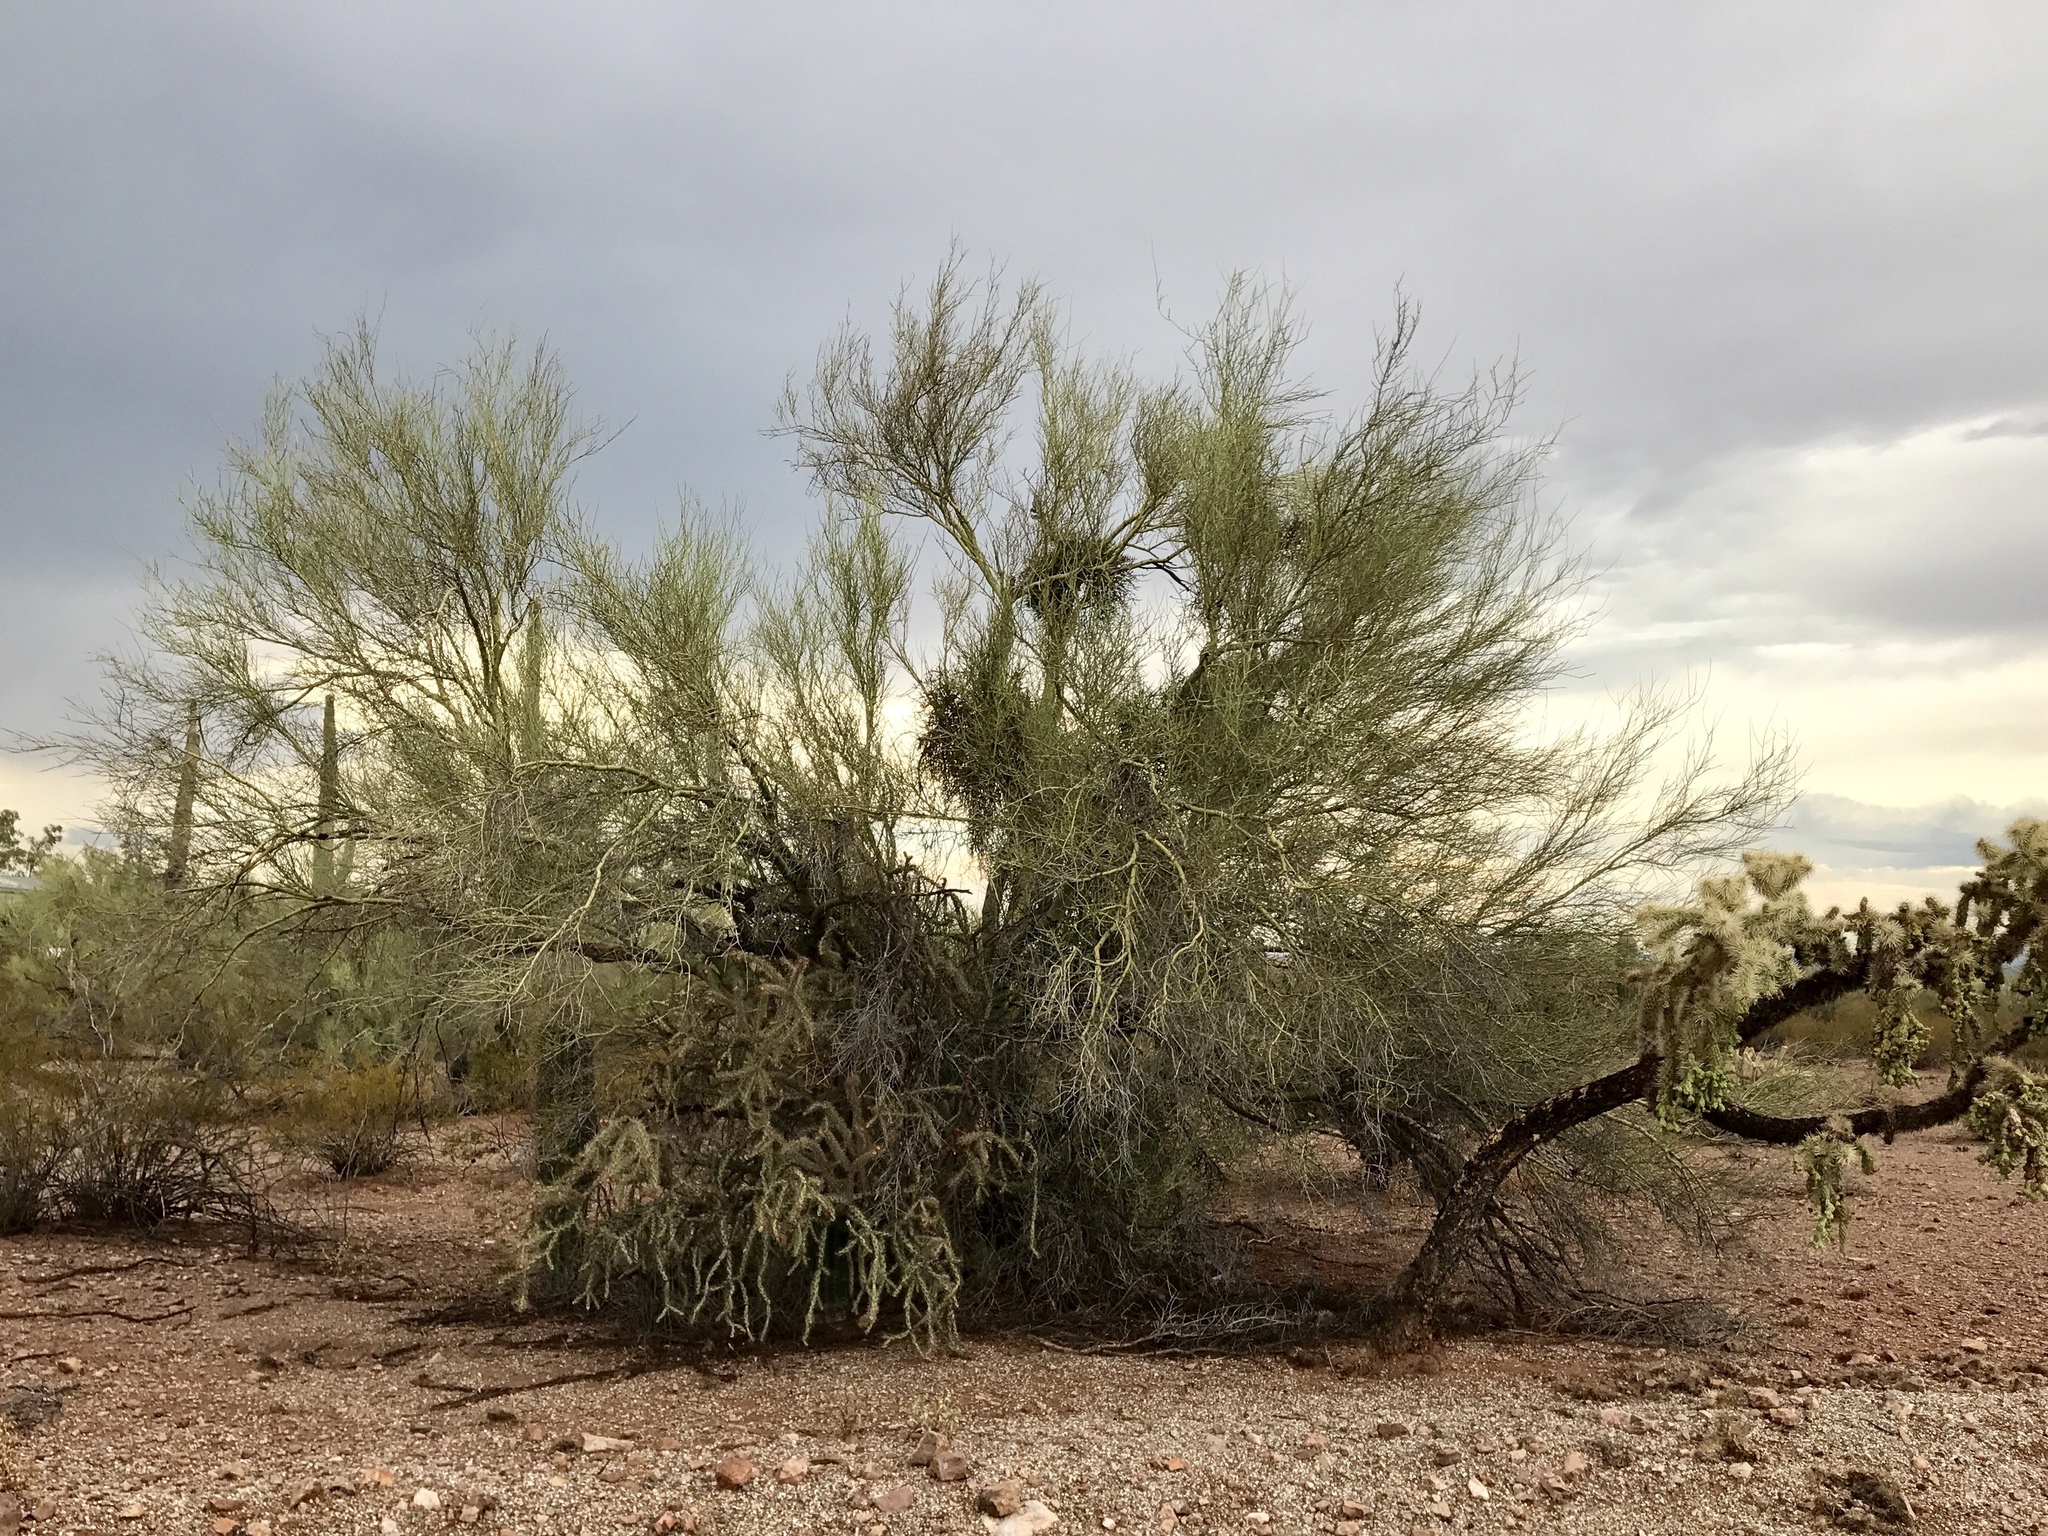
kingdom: Plantae
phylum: Tracheophyta
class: Magnoliopsida
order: Fabales
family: Fabaceae
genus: Parkinsonia
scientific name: Parkinsonia microphylla
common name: Yellow paloverde
